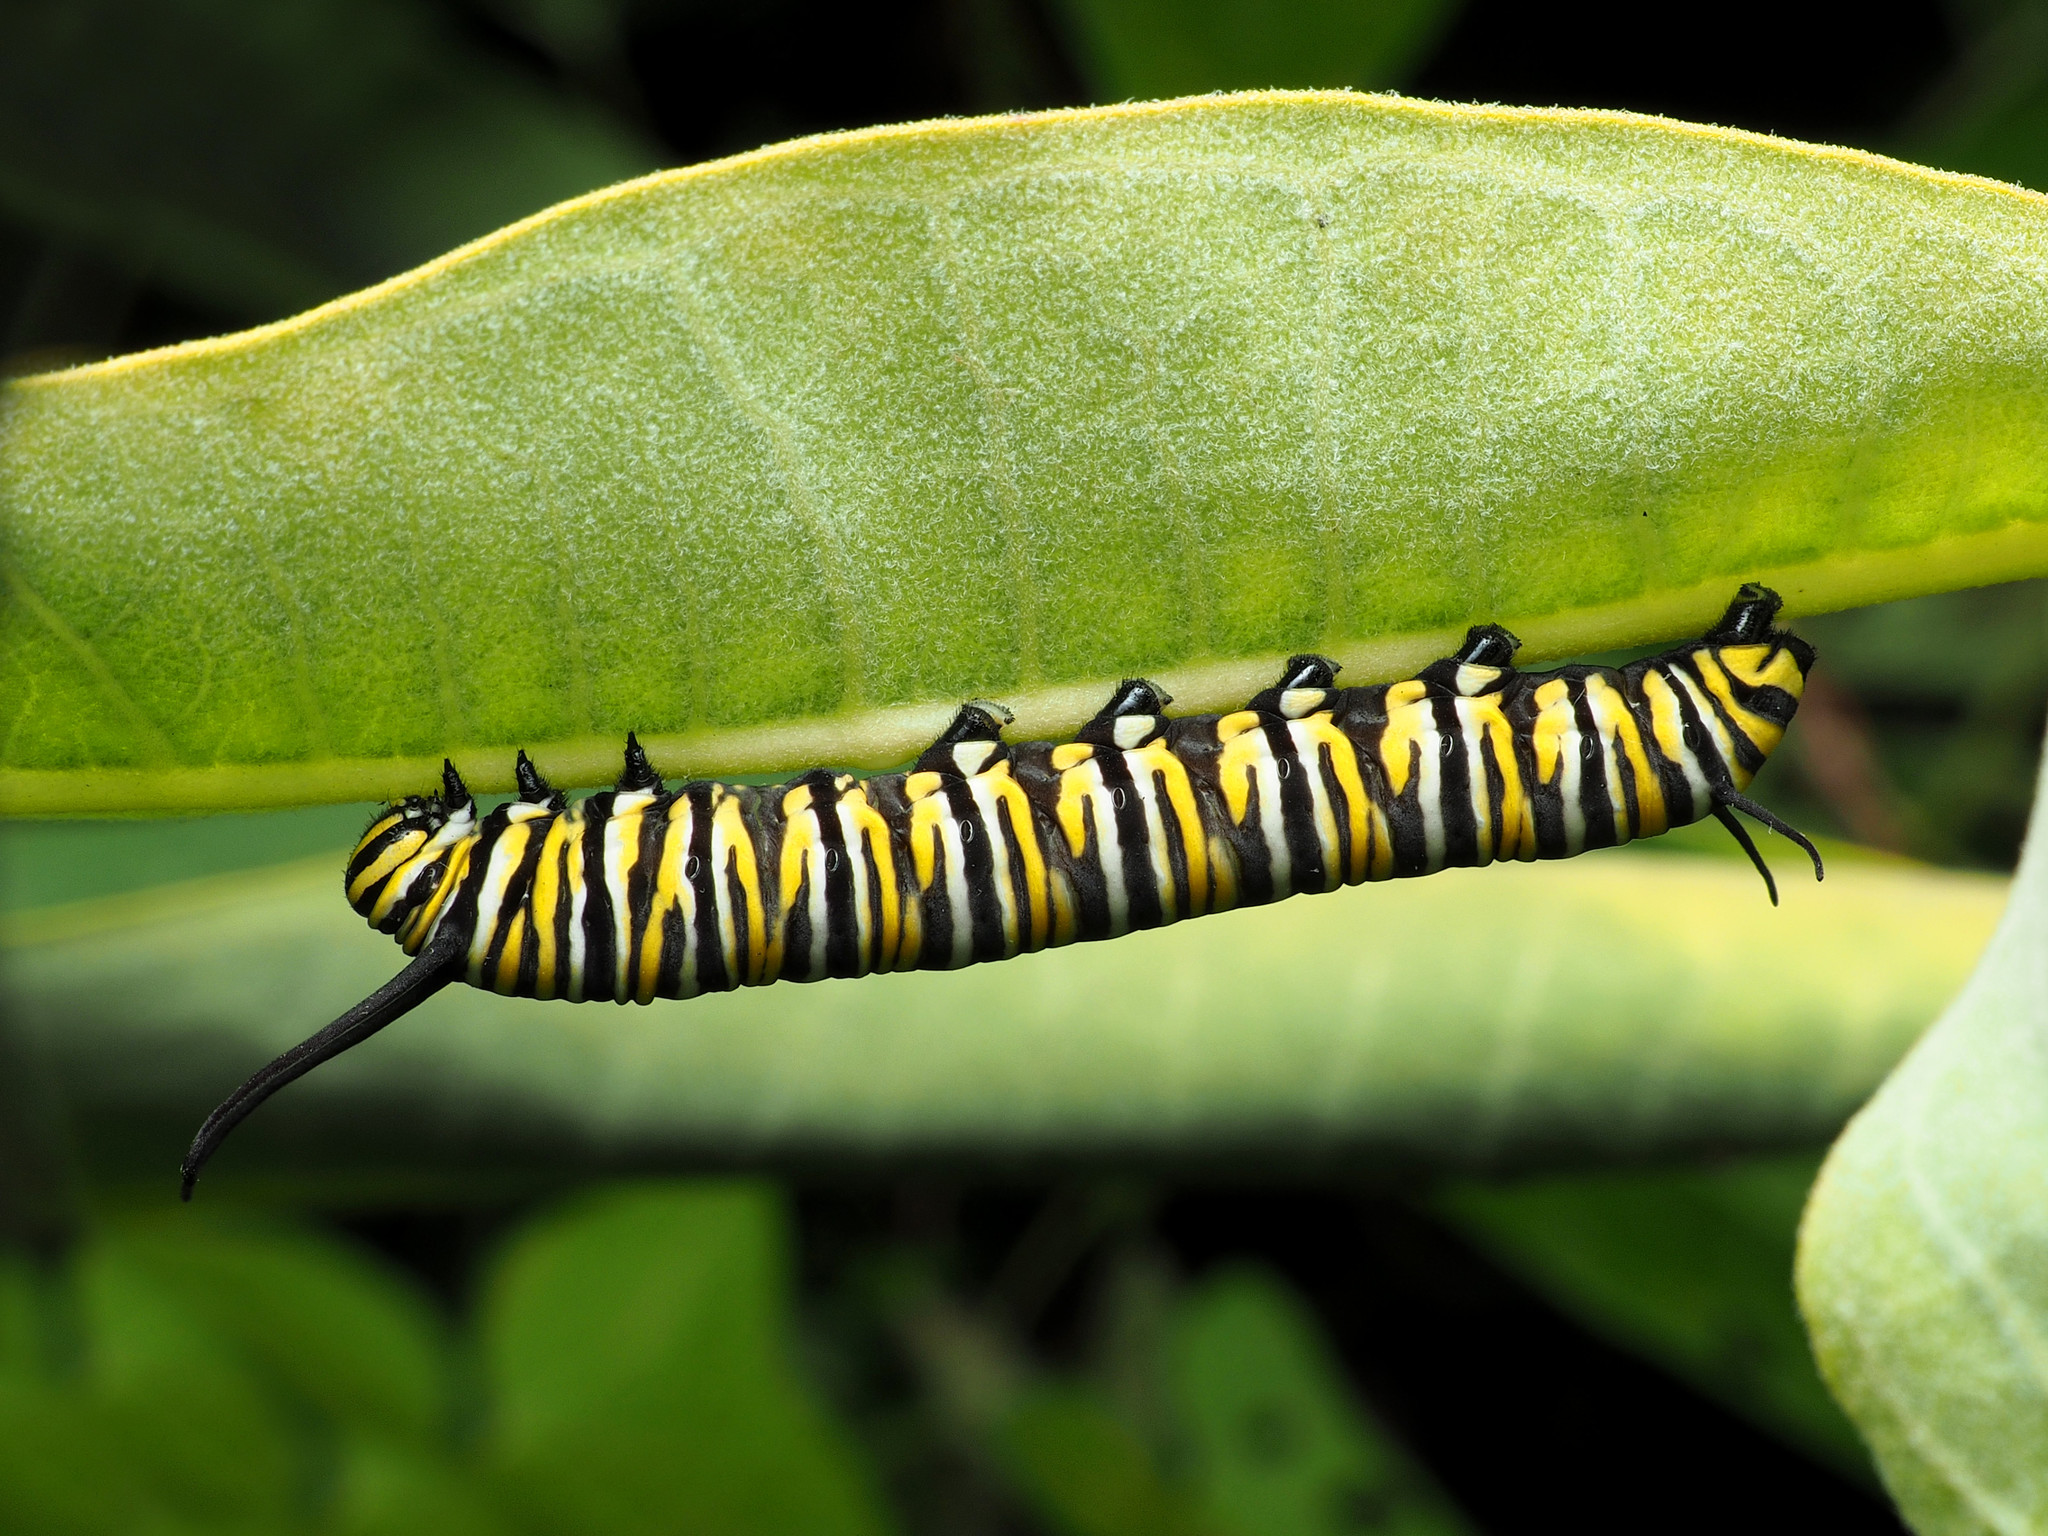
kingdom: Animalia
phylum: Arthropoda
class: Insecta
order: Lepidoptera
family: Nymphalidae
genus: Danaus
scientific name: Danaus plexippus
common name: Monarch
